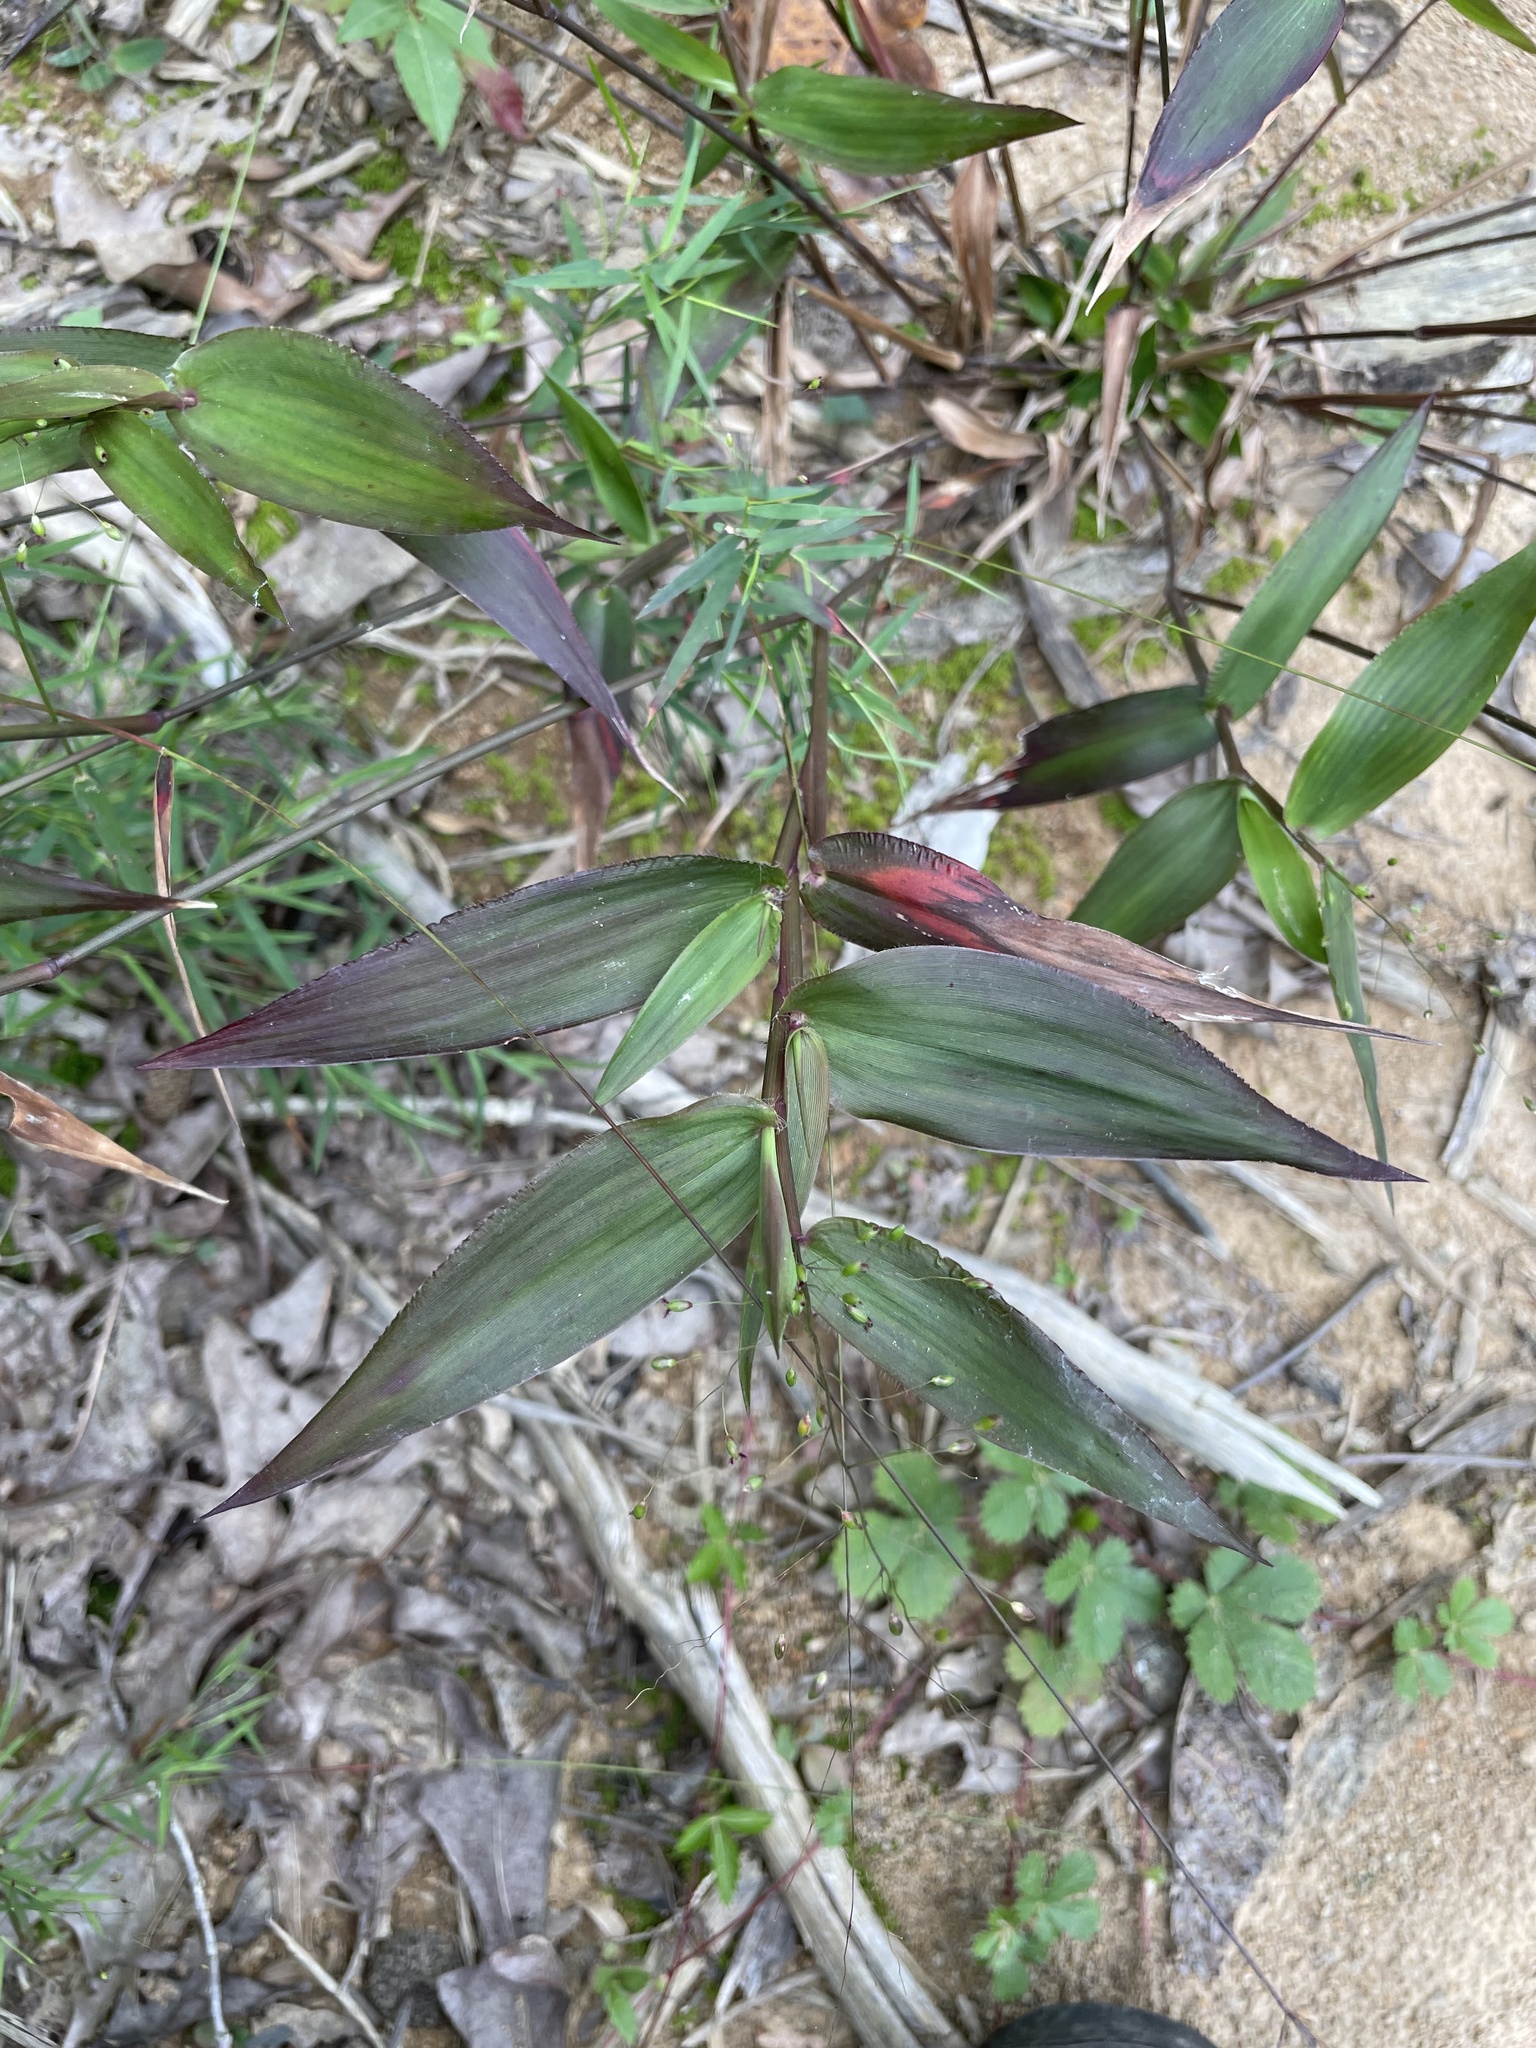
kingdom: Plantae
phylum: Tracheophyta
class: Liliopsida
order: Poales
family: Poaceae
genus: Dichanthelium
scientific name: Dichanthelium commutatum
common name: Variable witchgrass
